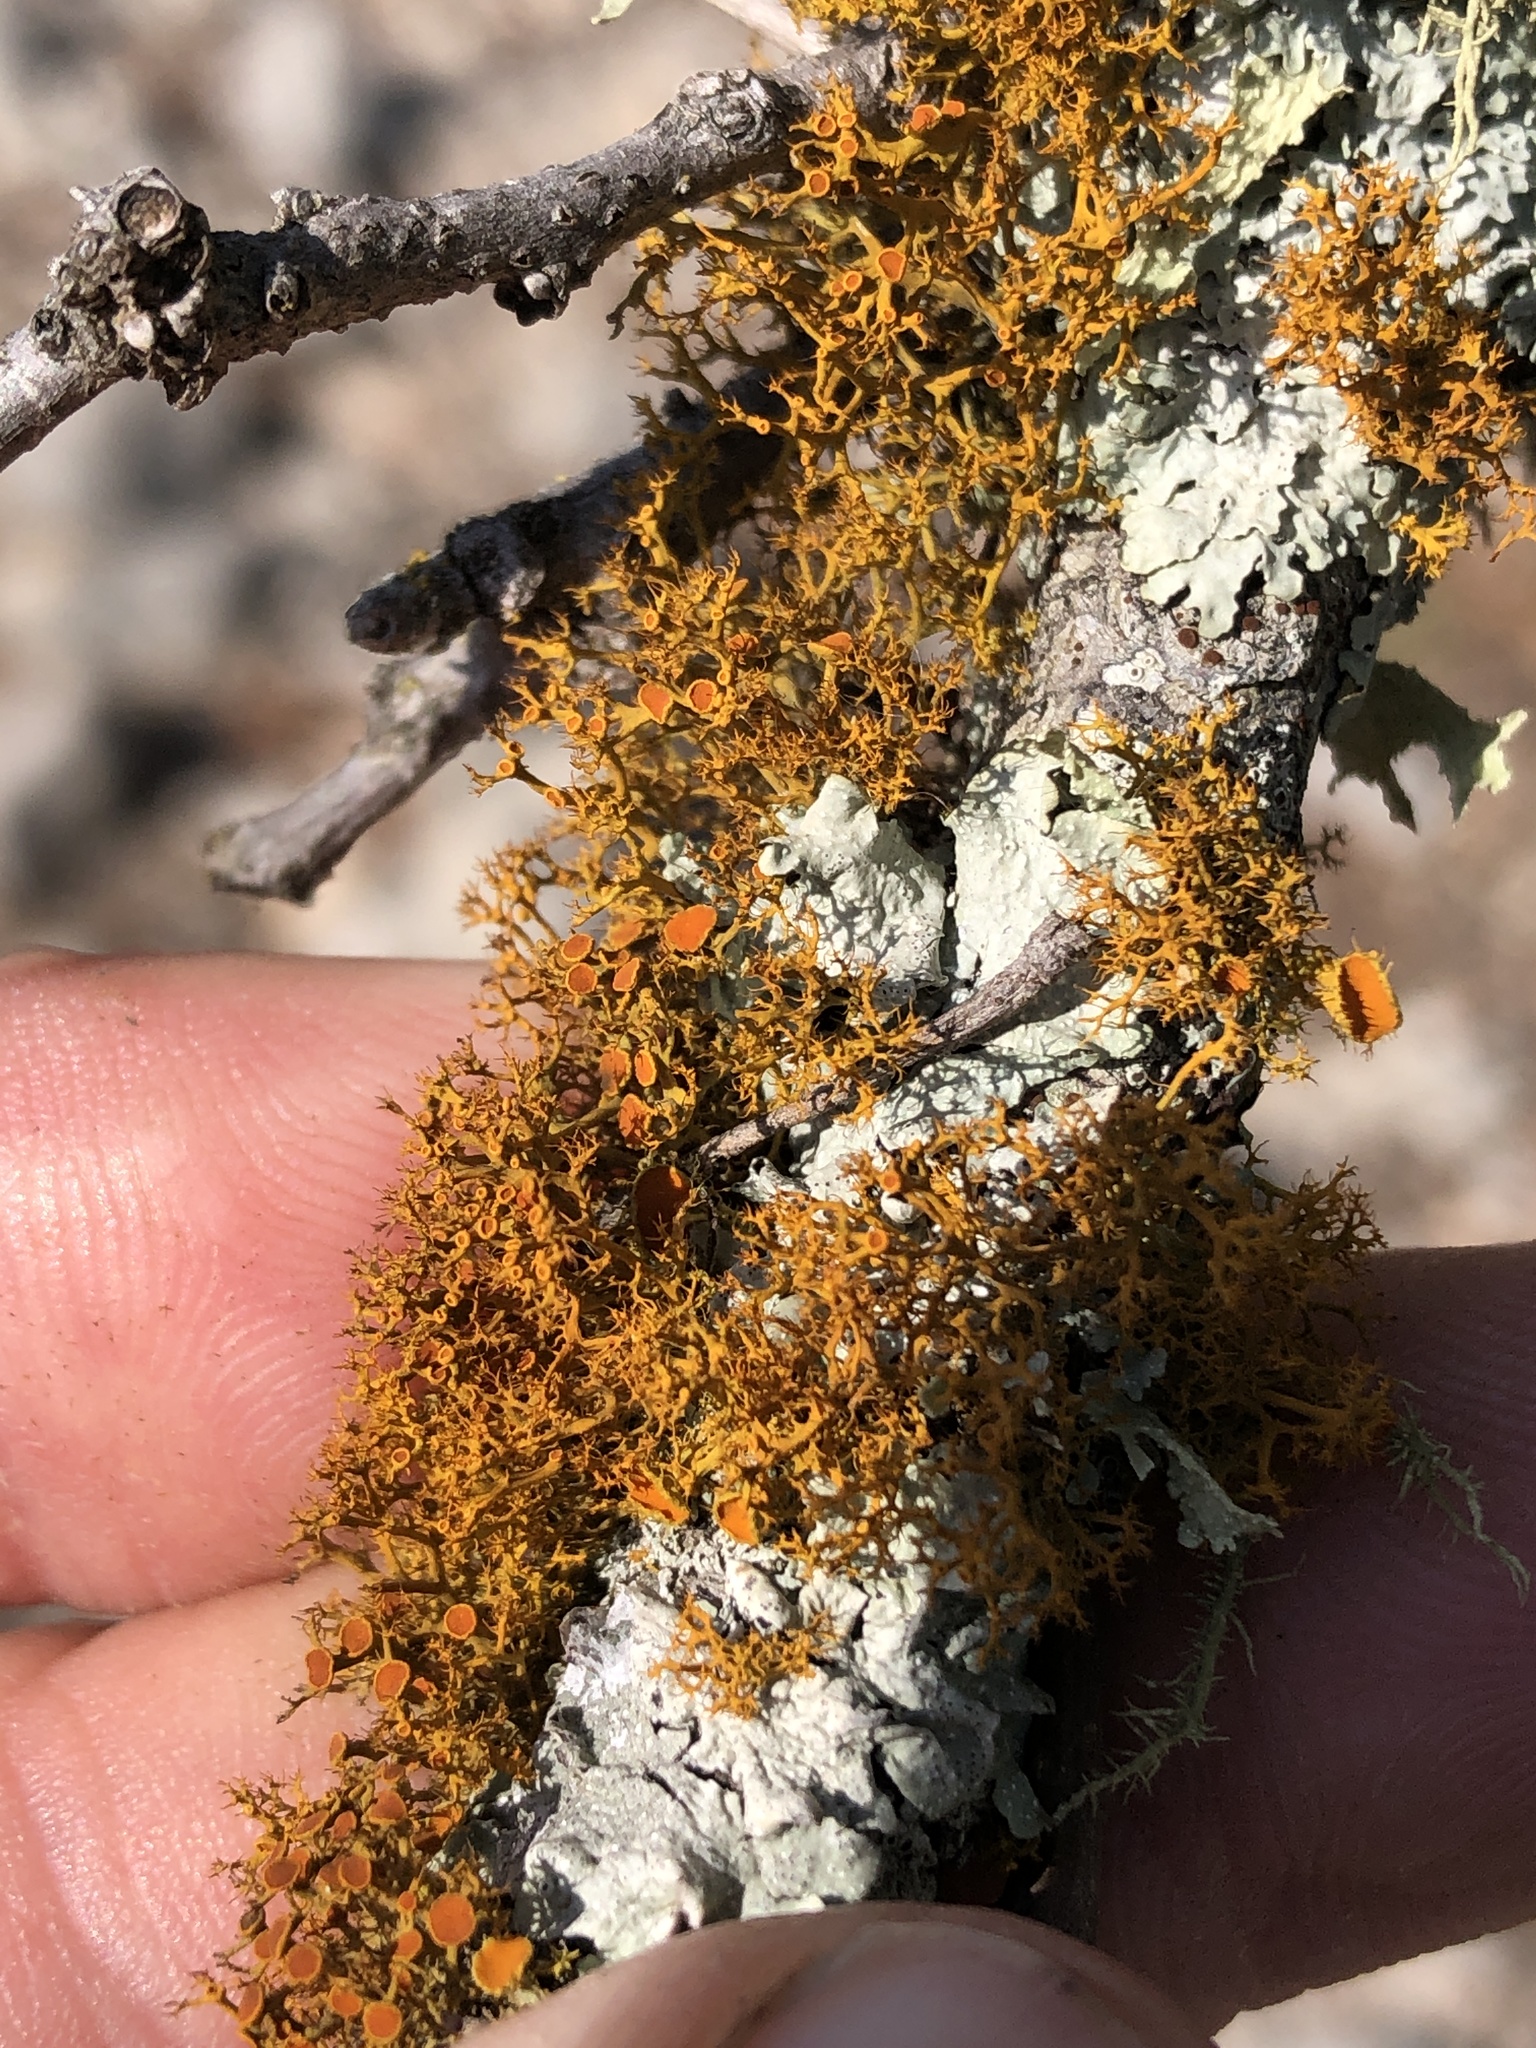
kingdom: Fungi
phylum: Ascomycota
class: Lecanoromycetes
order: Teloschistales
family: Teloschistaceae
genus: Teloschistes
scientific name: Teloschistes exilis
